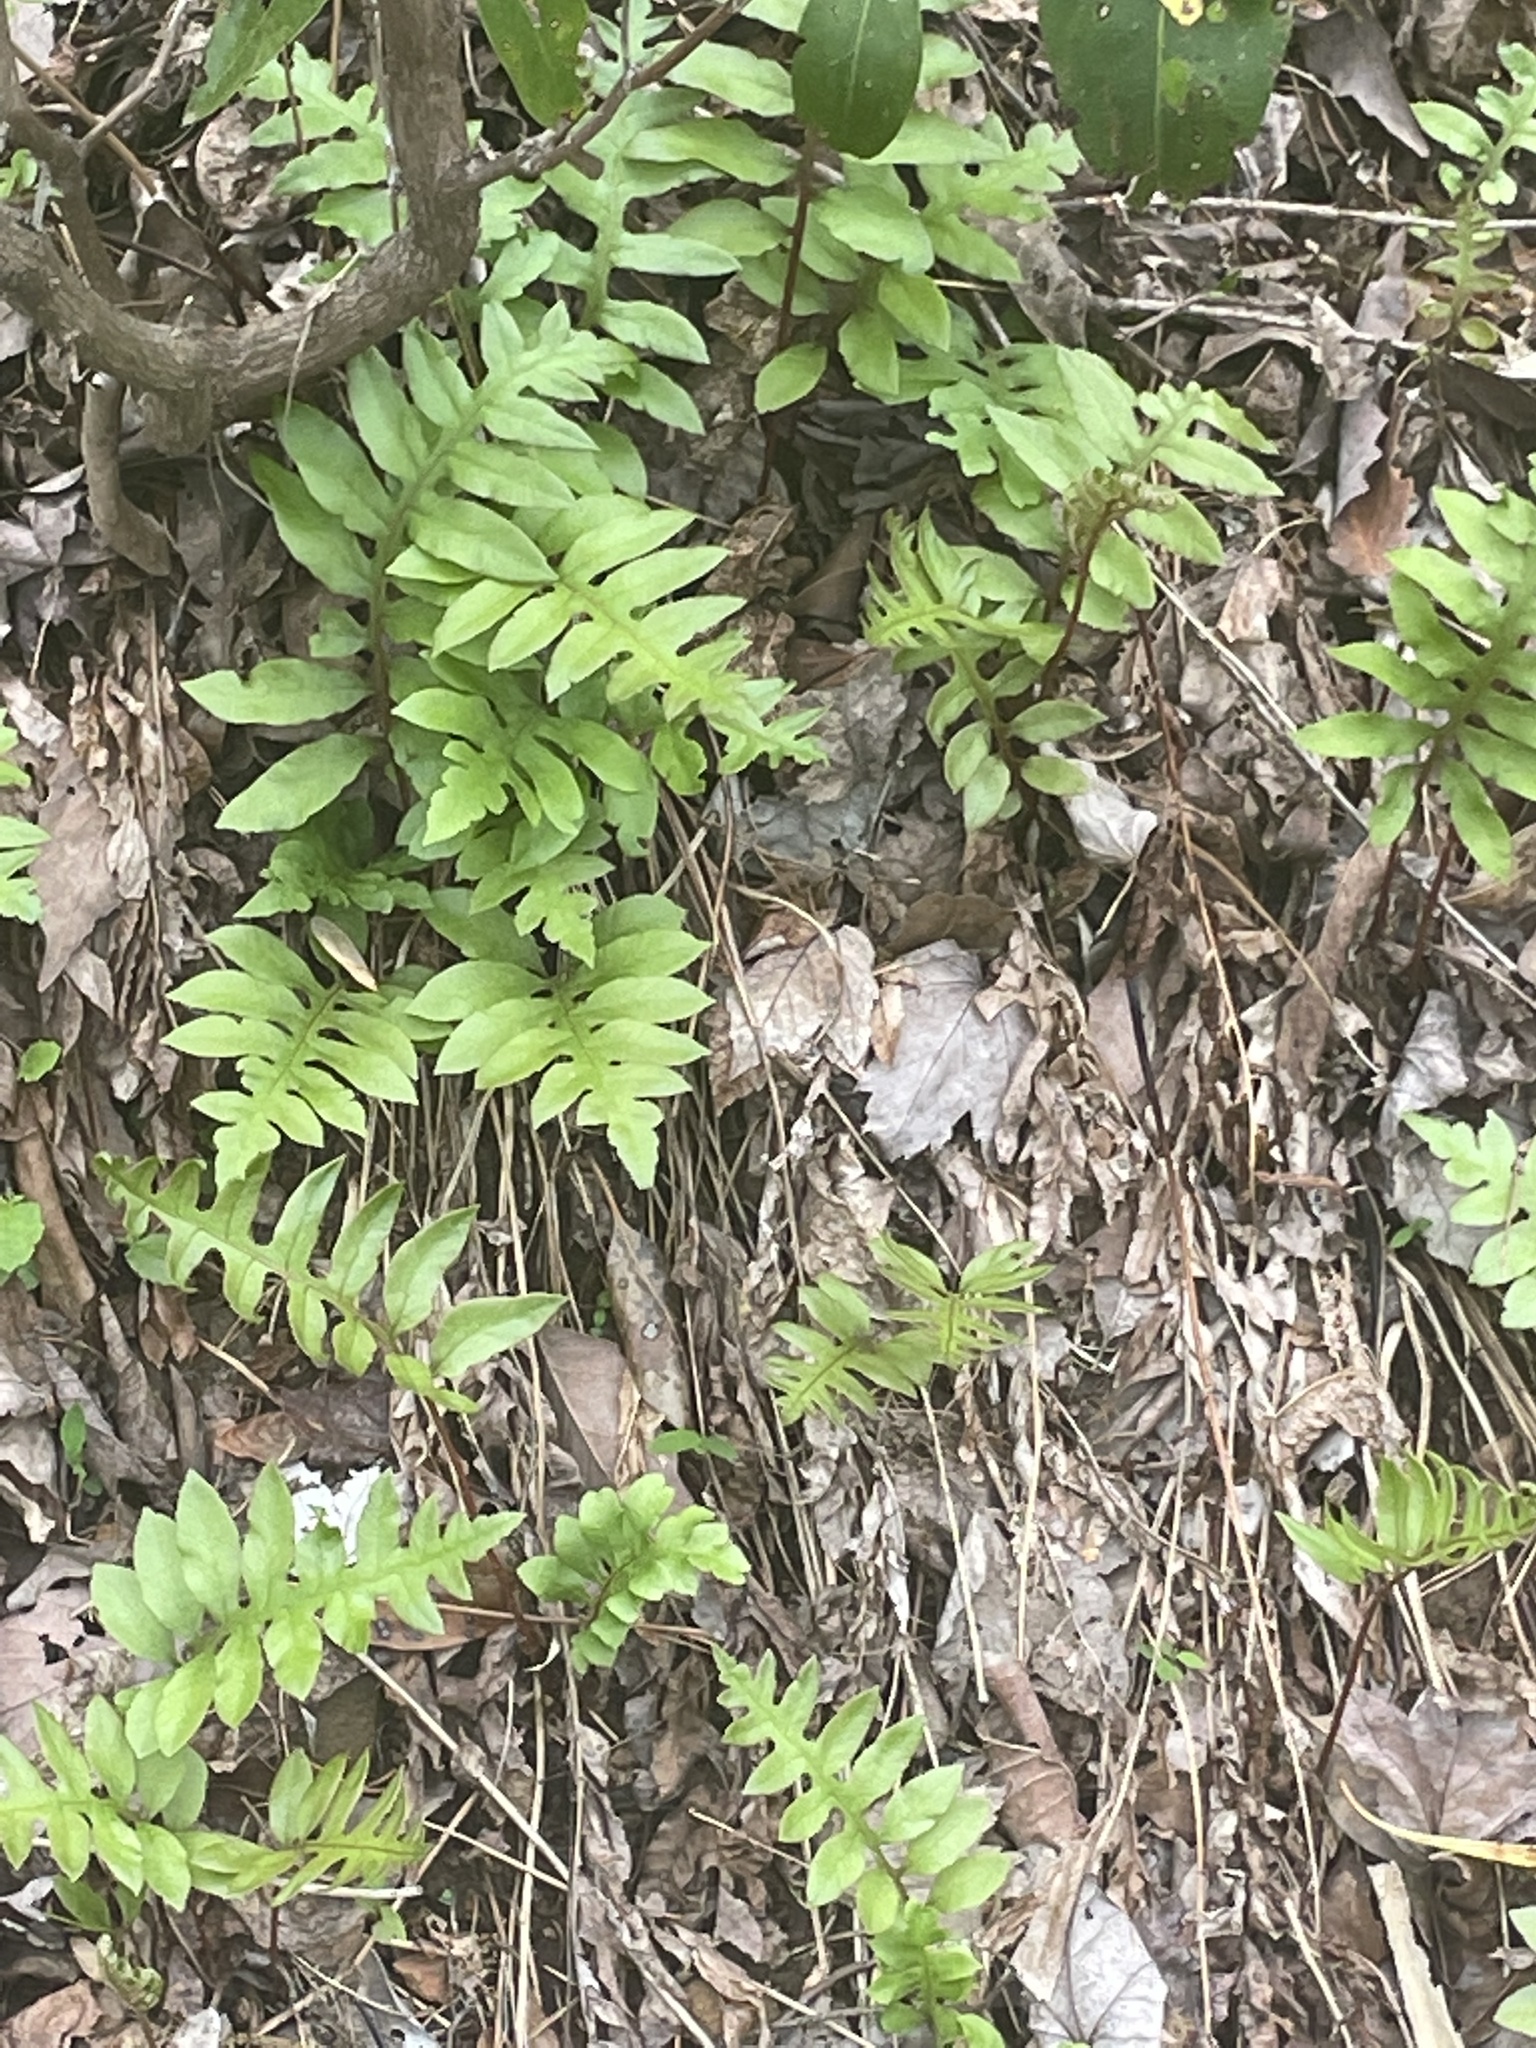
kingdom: Plantae
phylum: Tracheophyta
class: Polypodiopsida
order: Polypodiales
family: Blechnaceae
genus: Lorinseria
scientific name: Lorinseria areolata
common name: Dwarf chain fern
